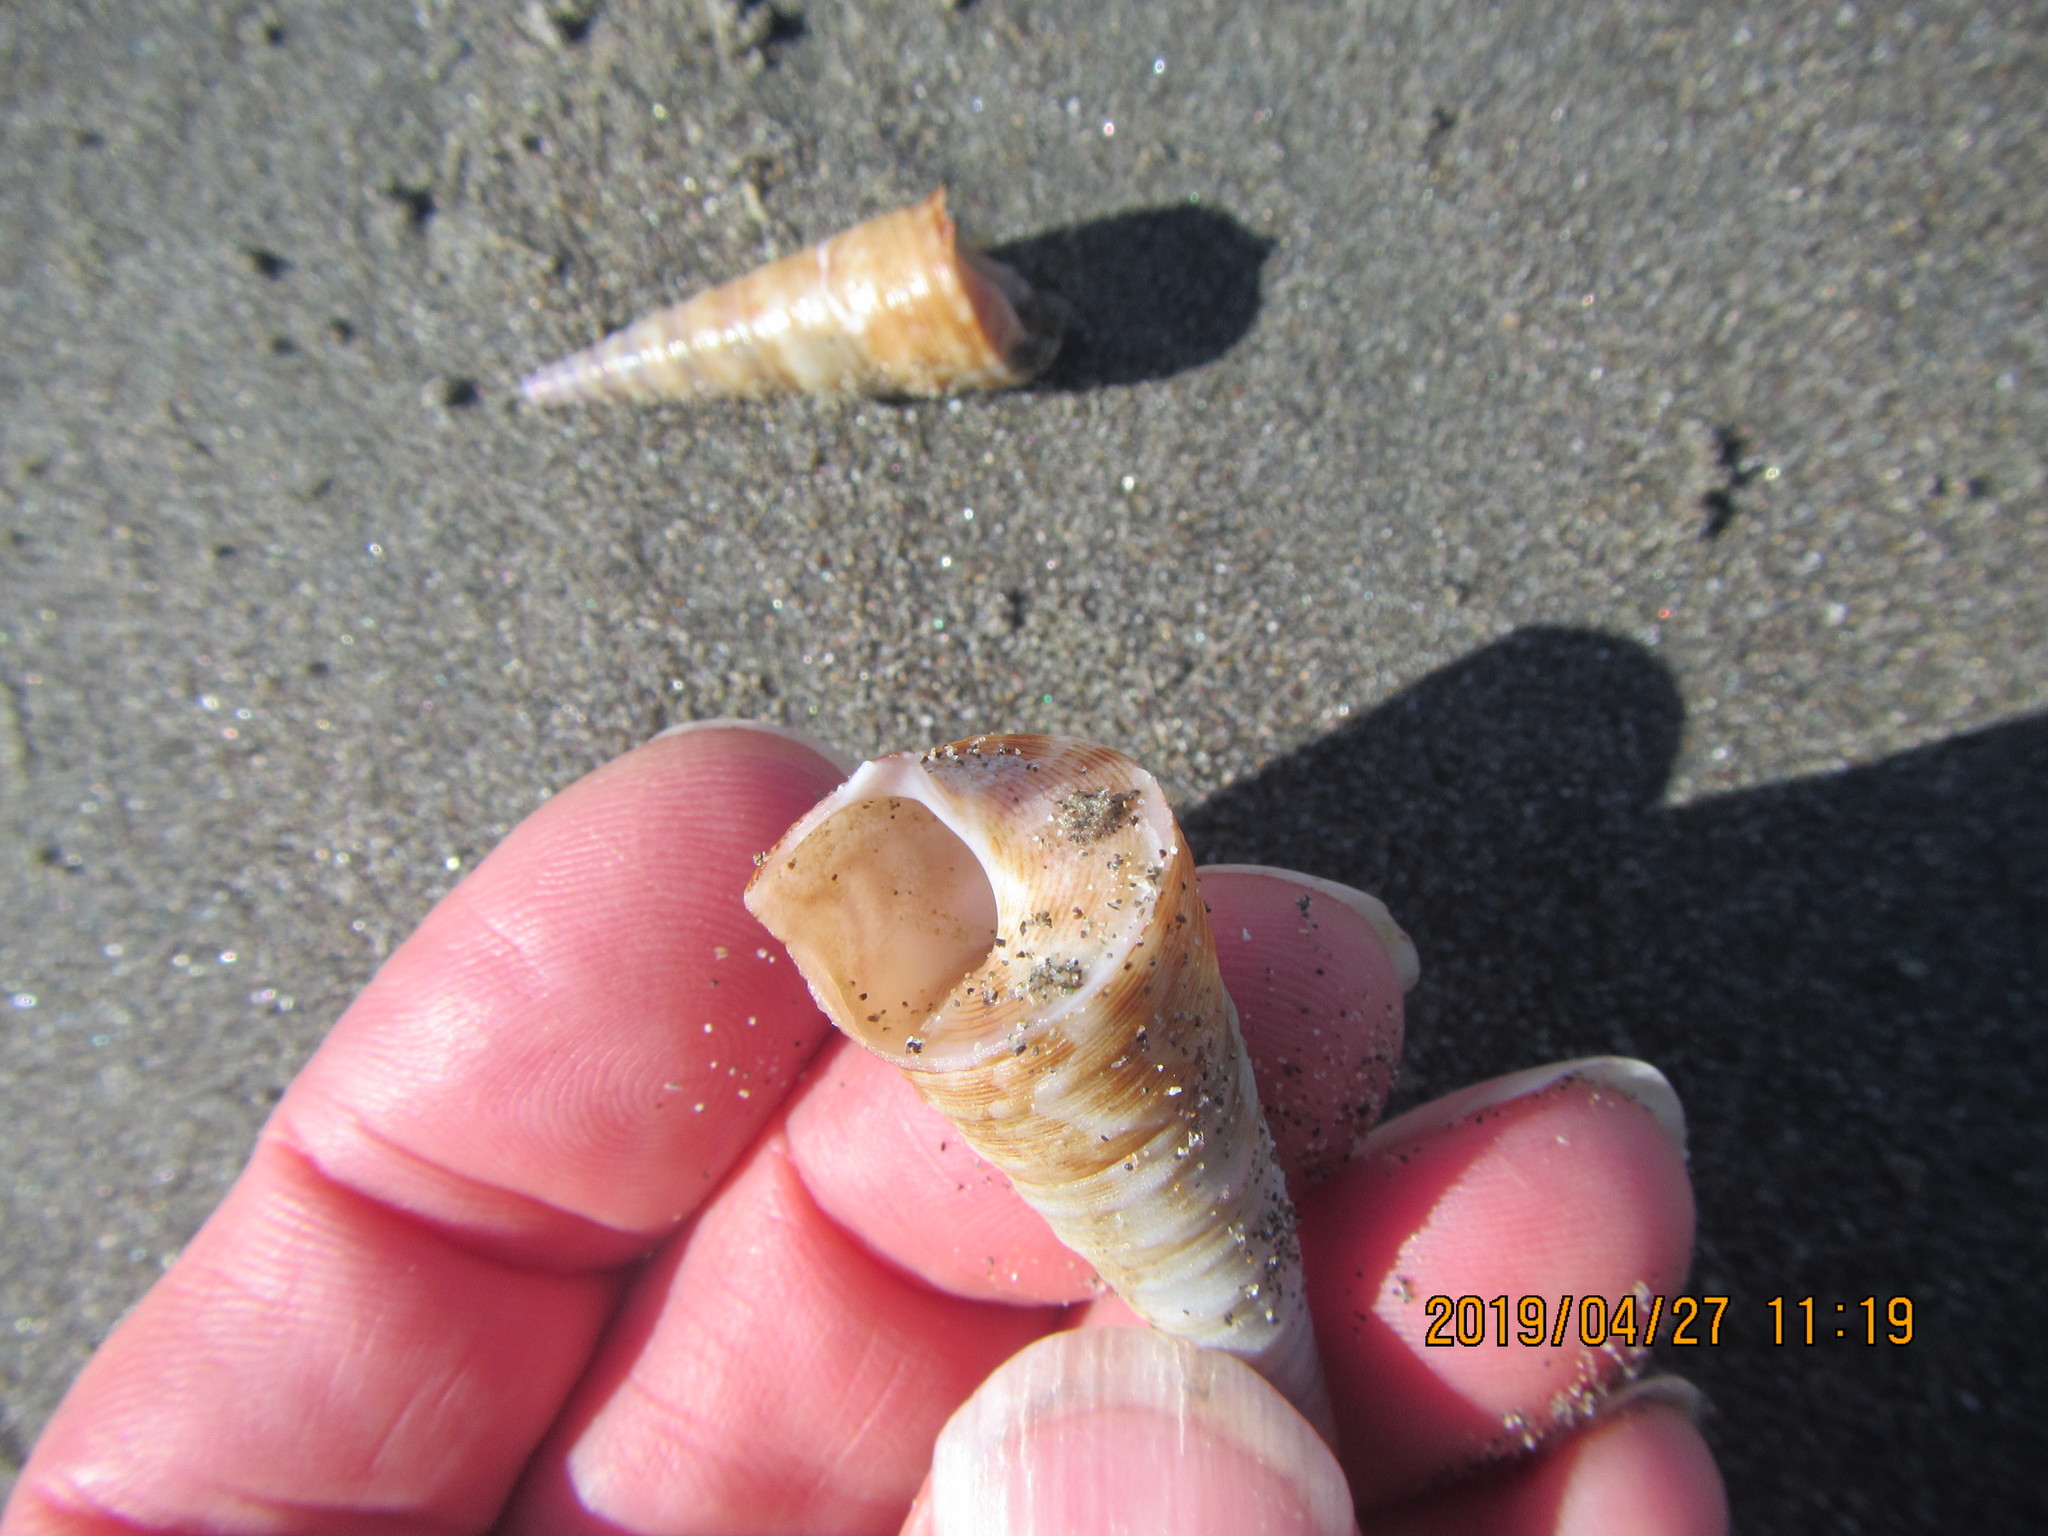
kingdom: Animalia
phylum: Mollusca
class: Gastropoda
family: Turritellidae
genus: Maoricolpus
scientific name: Maoricolpus roseus
